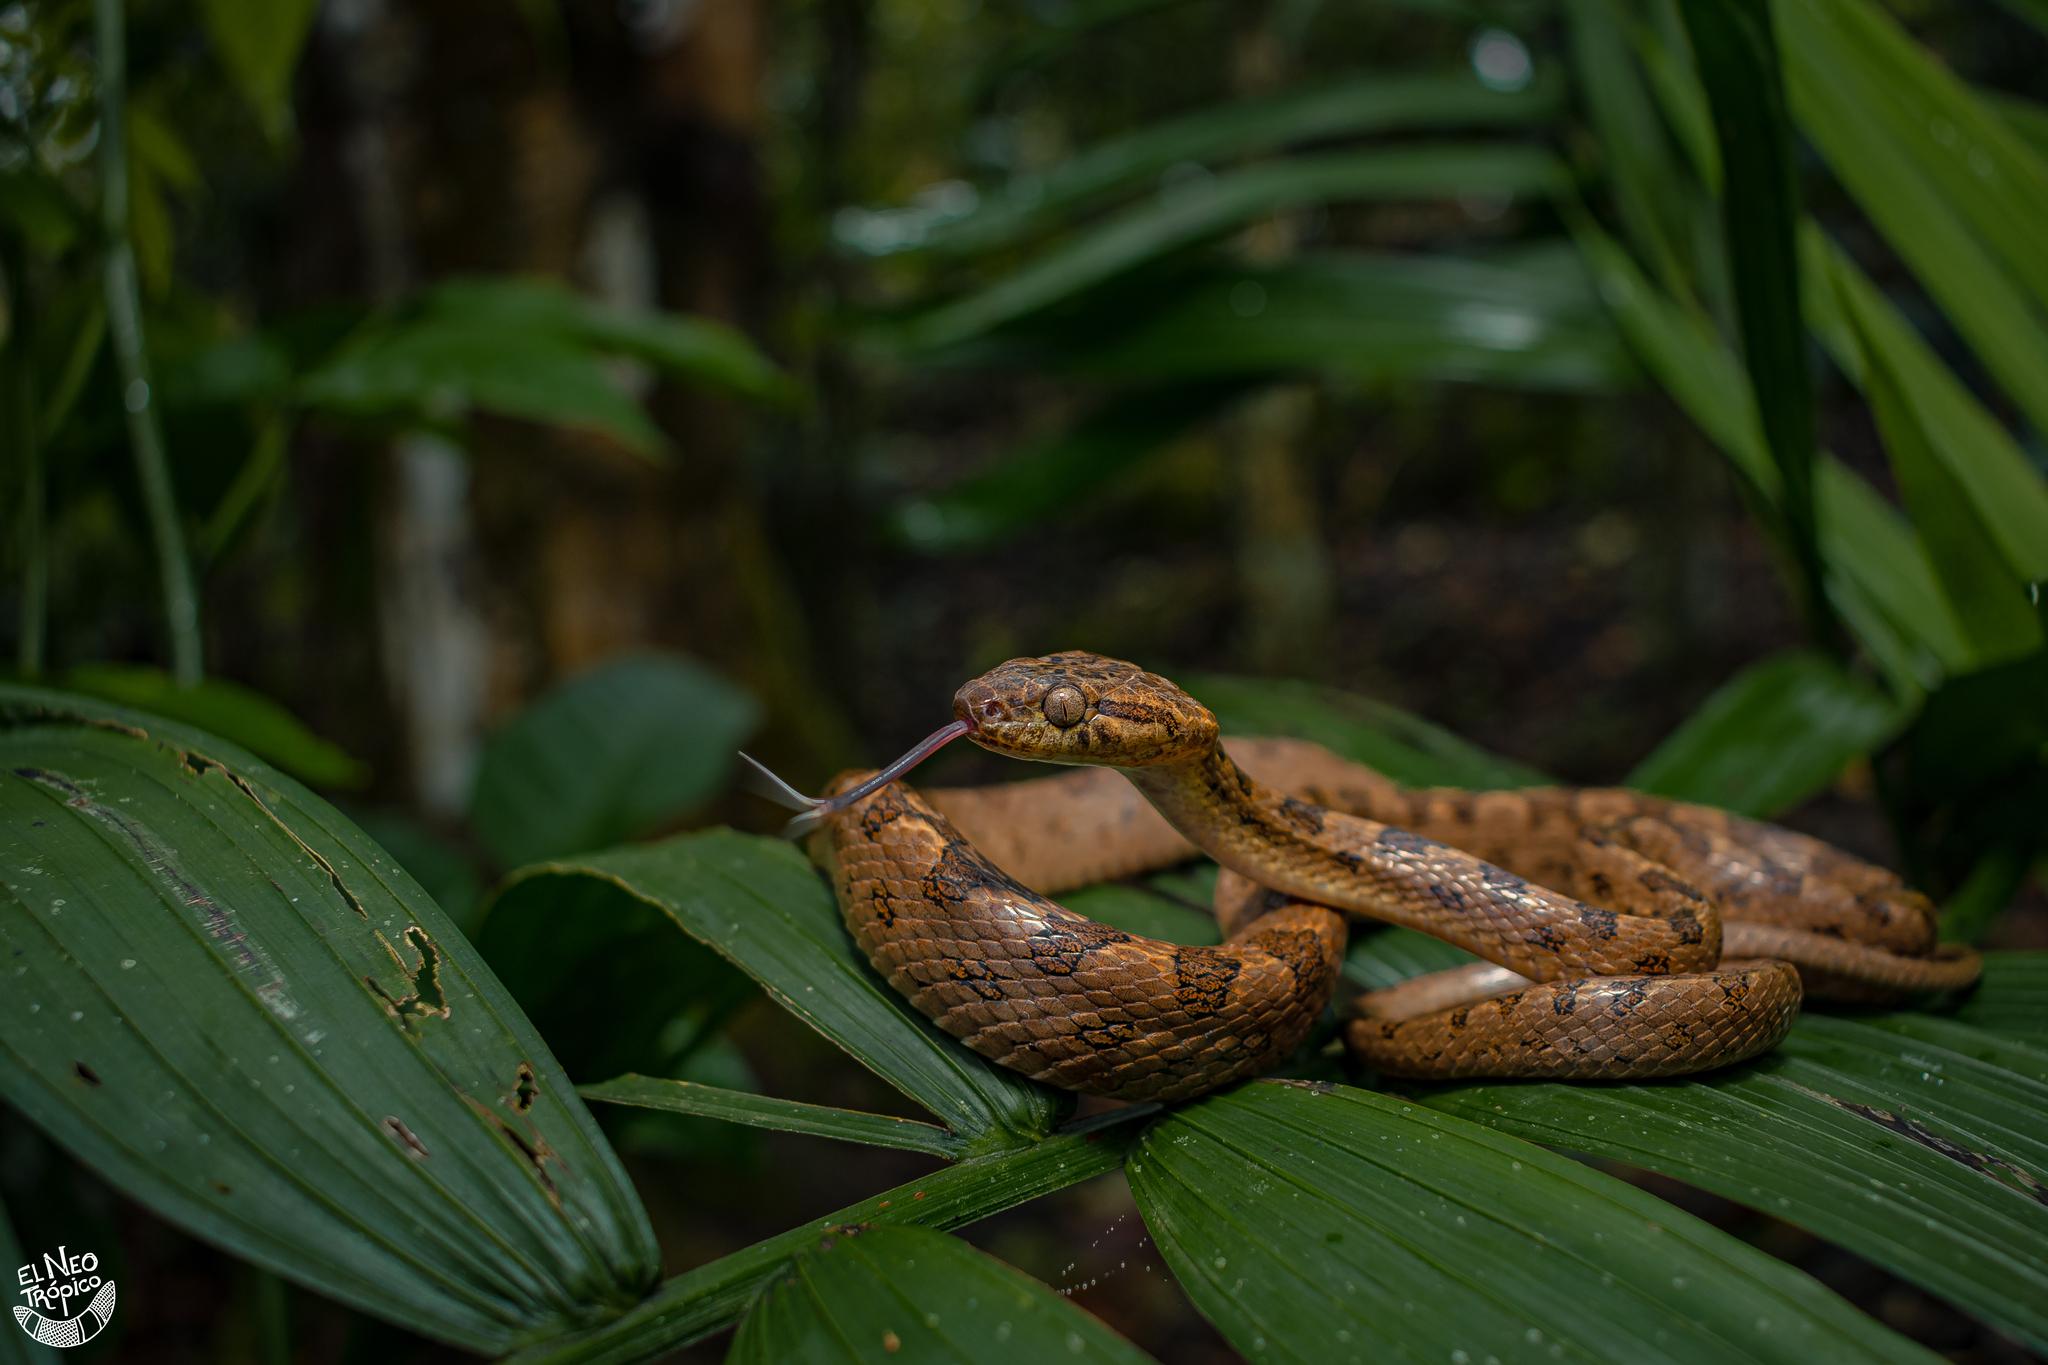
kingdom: Animalia
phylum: Chordata
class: Squamata
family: Colubridae
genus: Leptodeira
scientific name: Leptodeira septentrionalis
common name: Northern cat-eyed snake
